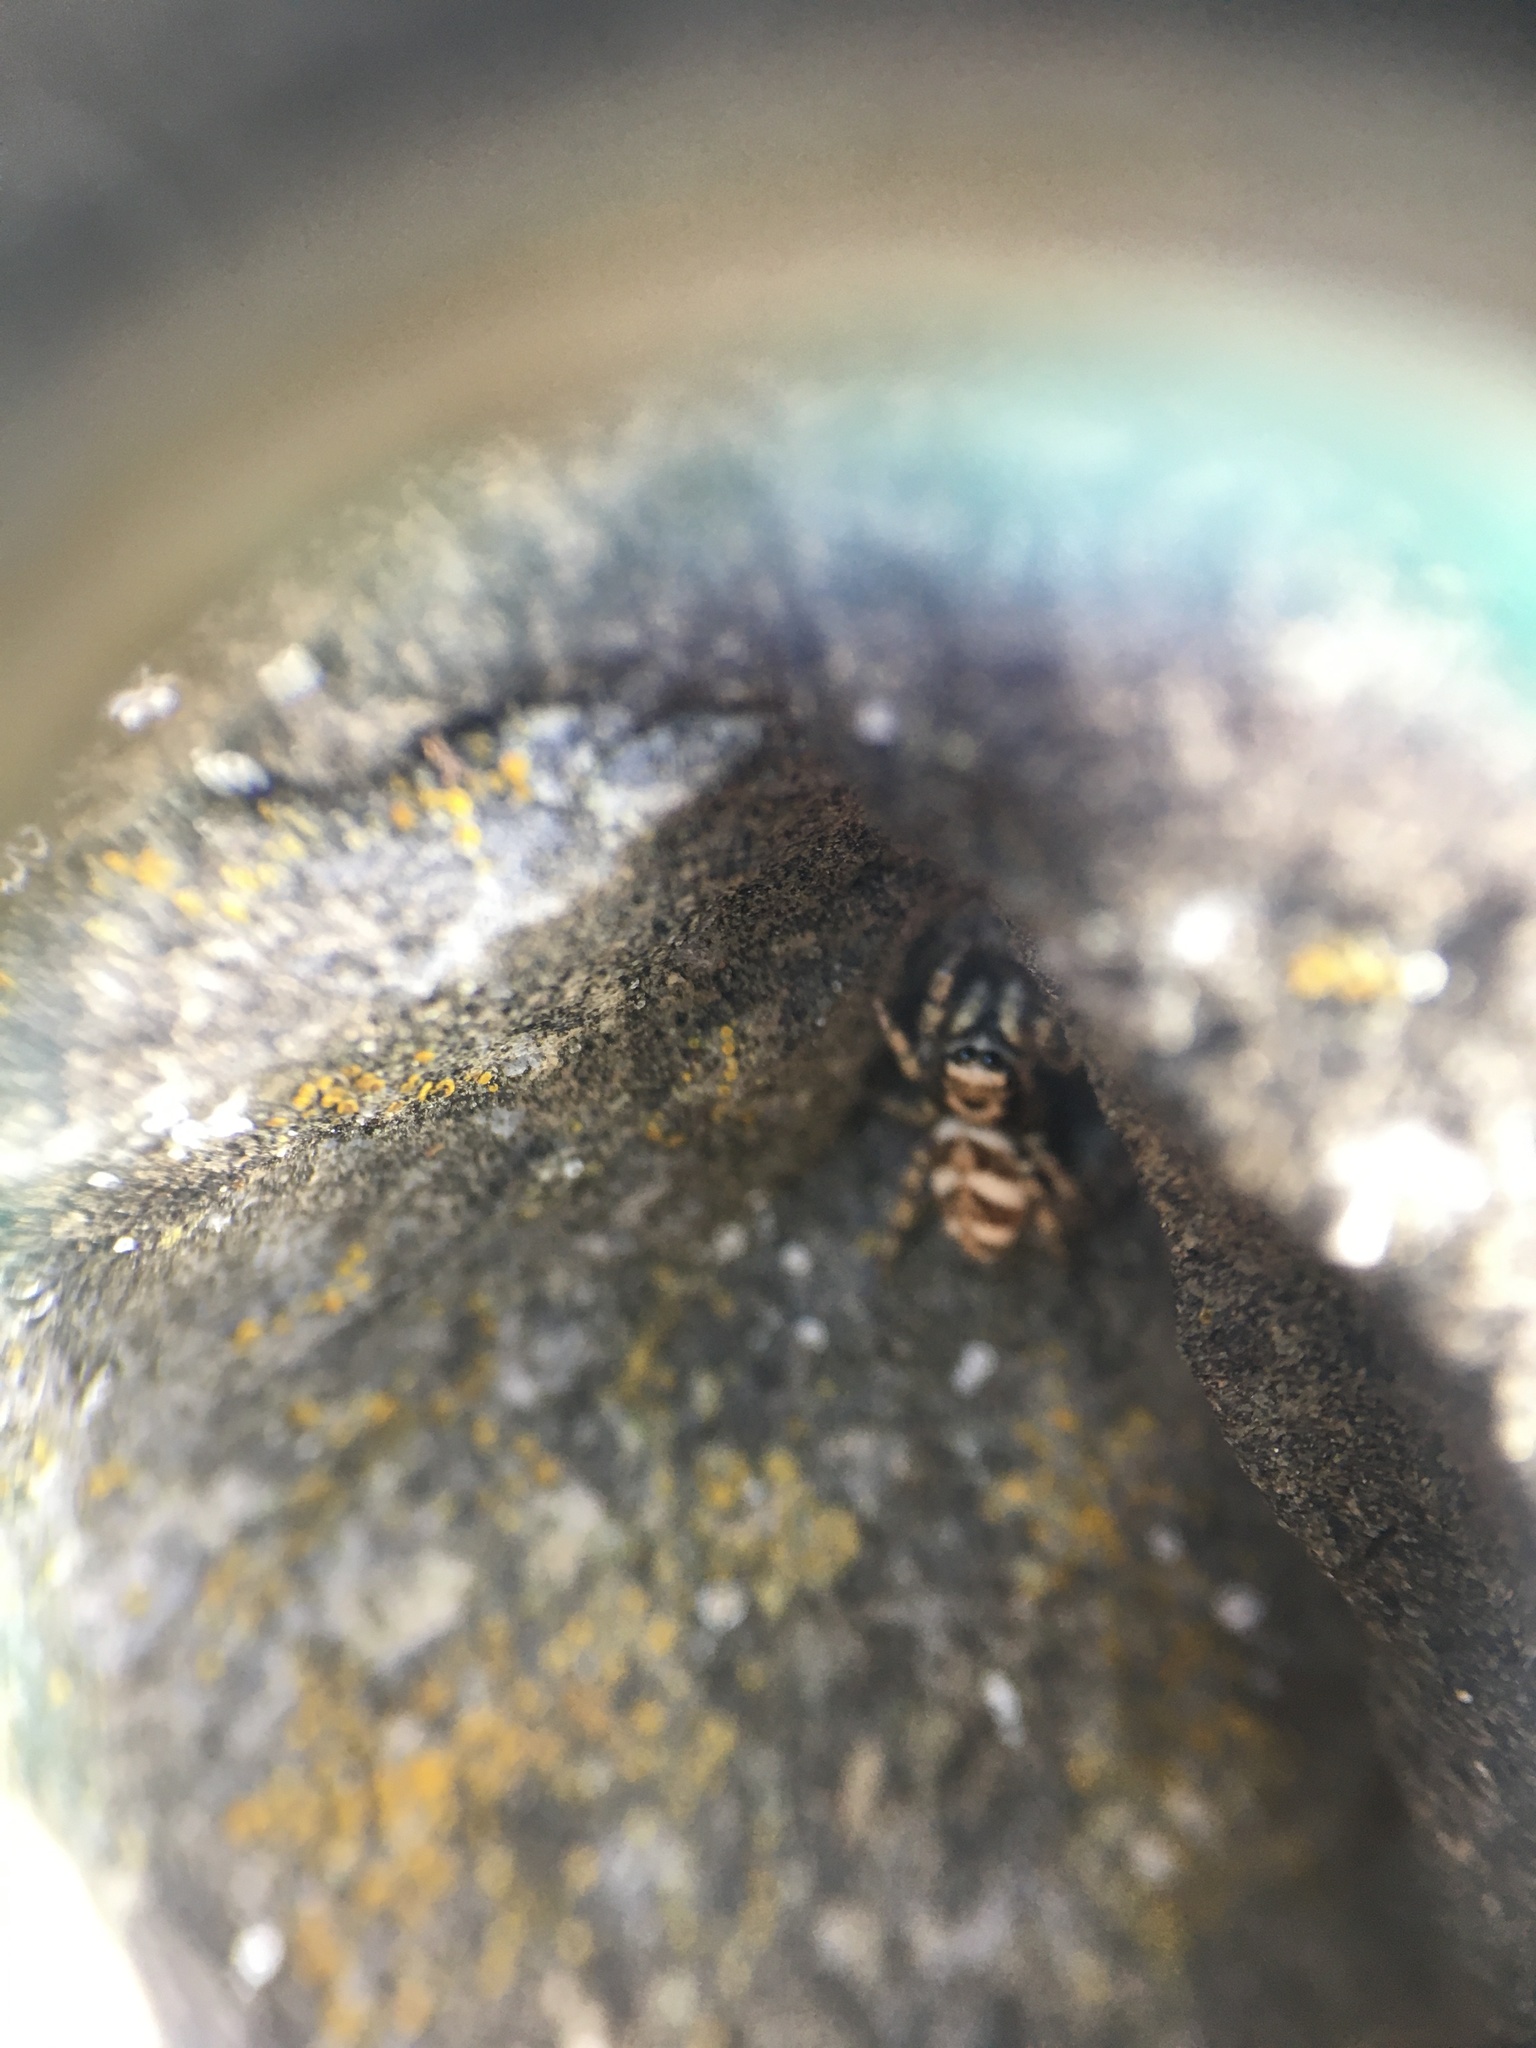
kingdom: Animalia
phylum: Arthropoda
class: Arachnida
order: Araneae
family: Salticidae
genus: Salticus
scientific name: Salticus scenicus
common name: Zebra jumper
